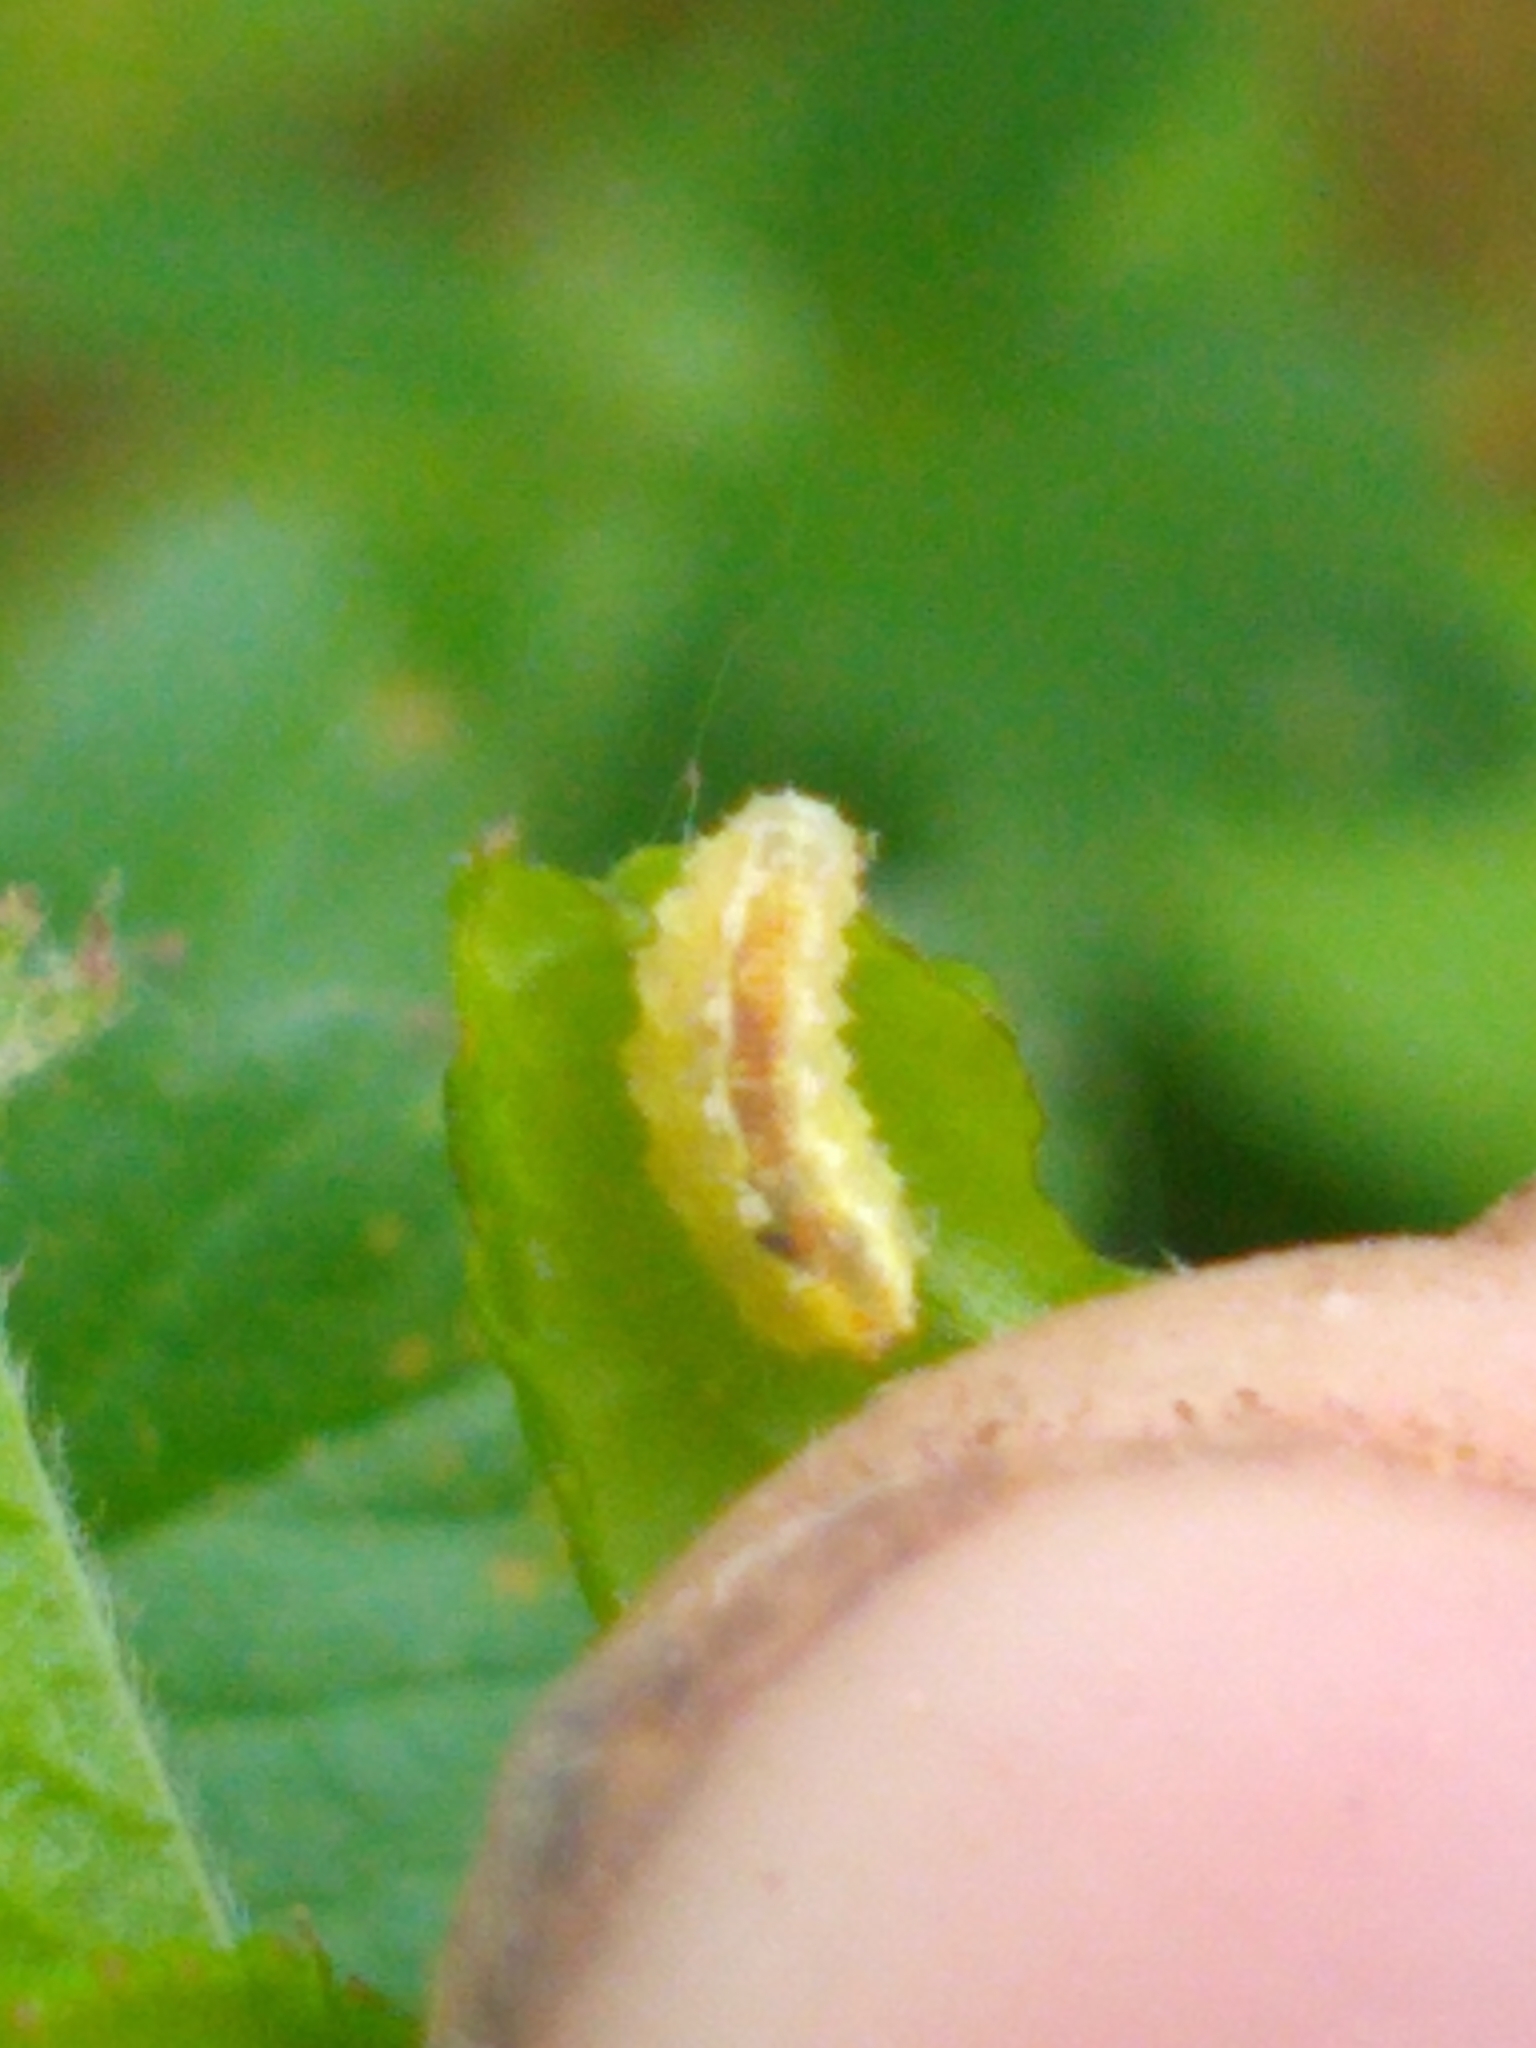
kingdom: Animalia
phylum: Arthropoda
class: Insecta
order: Diptera
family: Syrphidae
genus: Syrphus
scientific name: Syrphus
